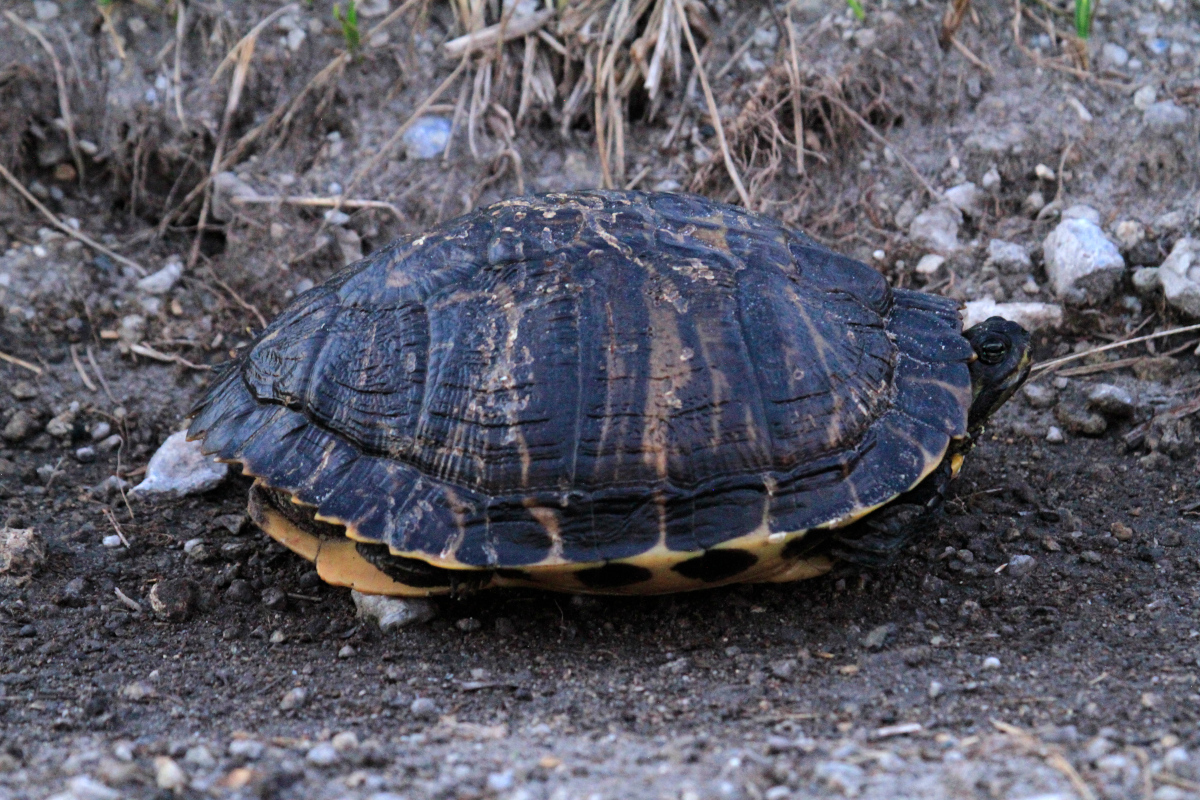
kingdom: Animalia
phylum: Chordata
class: Testudines
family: Emydidae
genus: Trachemys
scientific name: Trachemys scripta
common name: Slider
